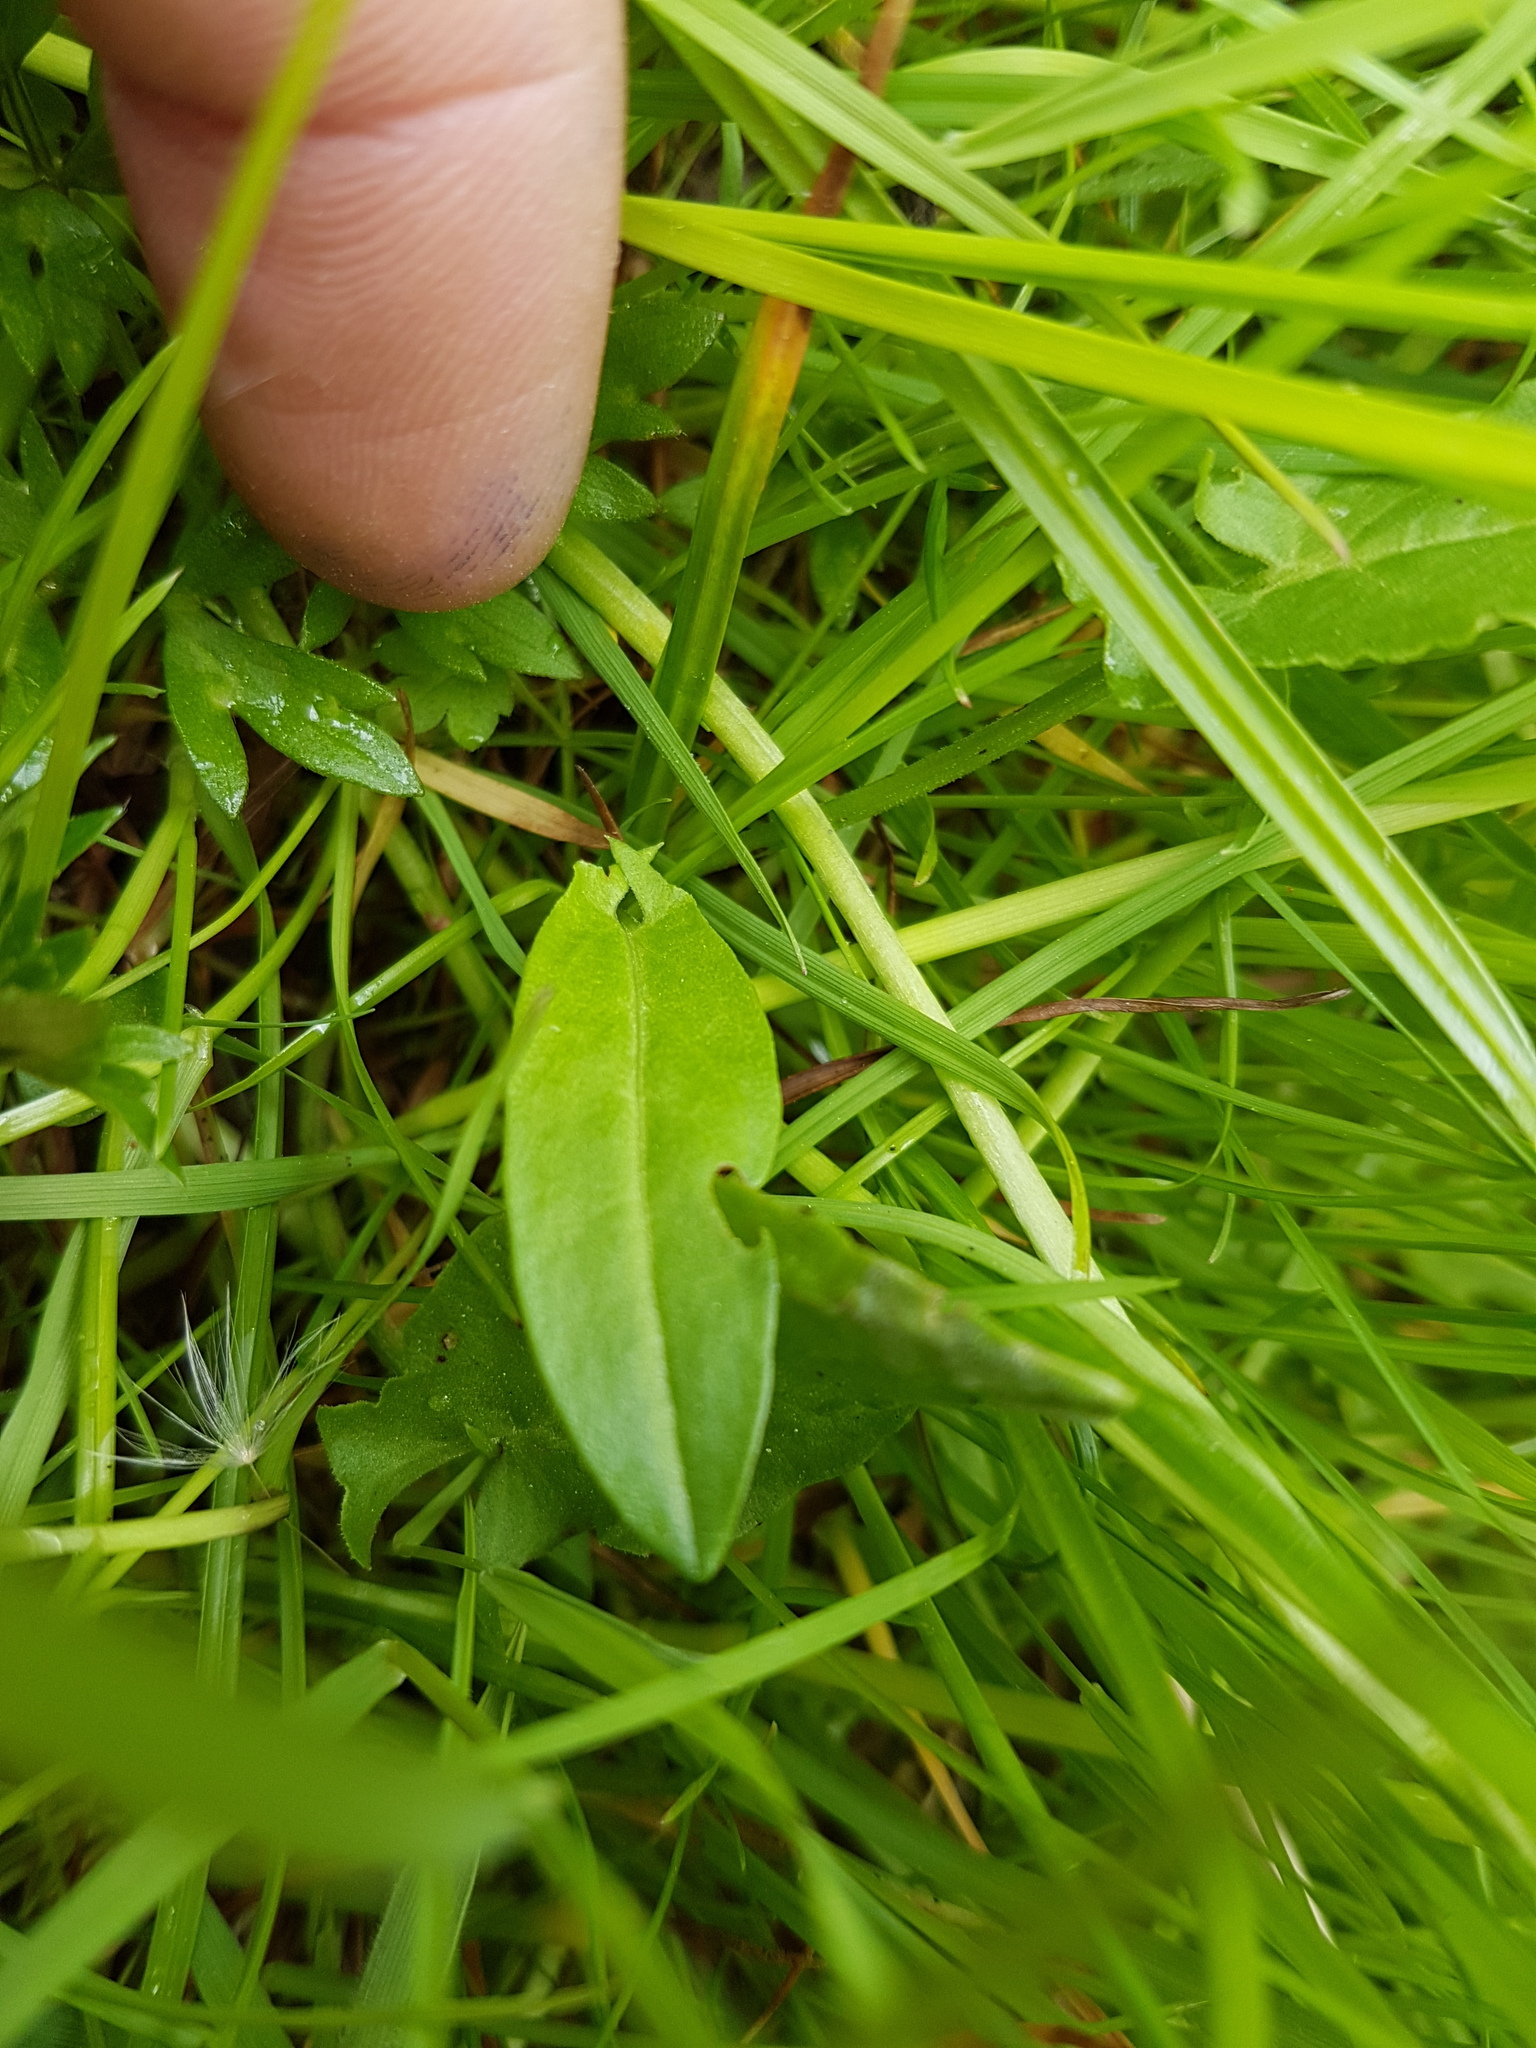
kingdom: Plantae
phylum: Tracheophyta
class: Magnoliopsida
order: Caryophyllales
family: Polygonaceae
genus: Rumex
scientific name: Rumex acetosella
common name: Common sheep sorrel
